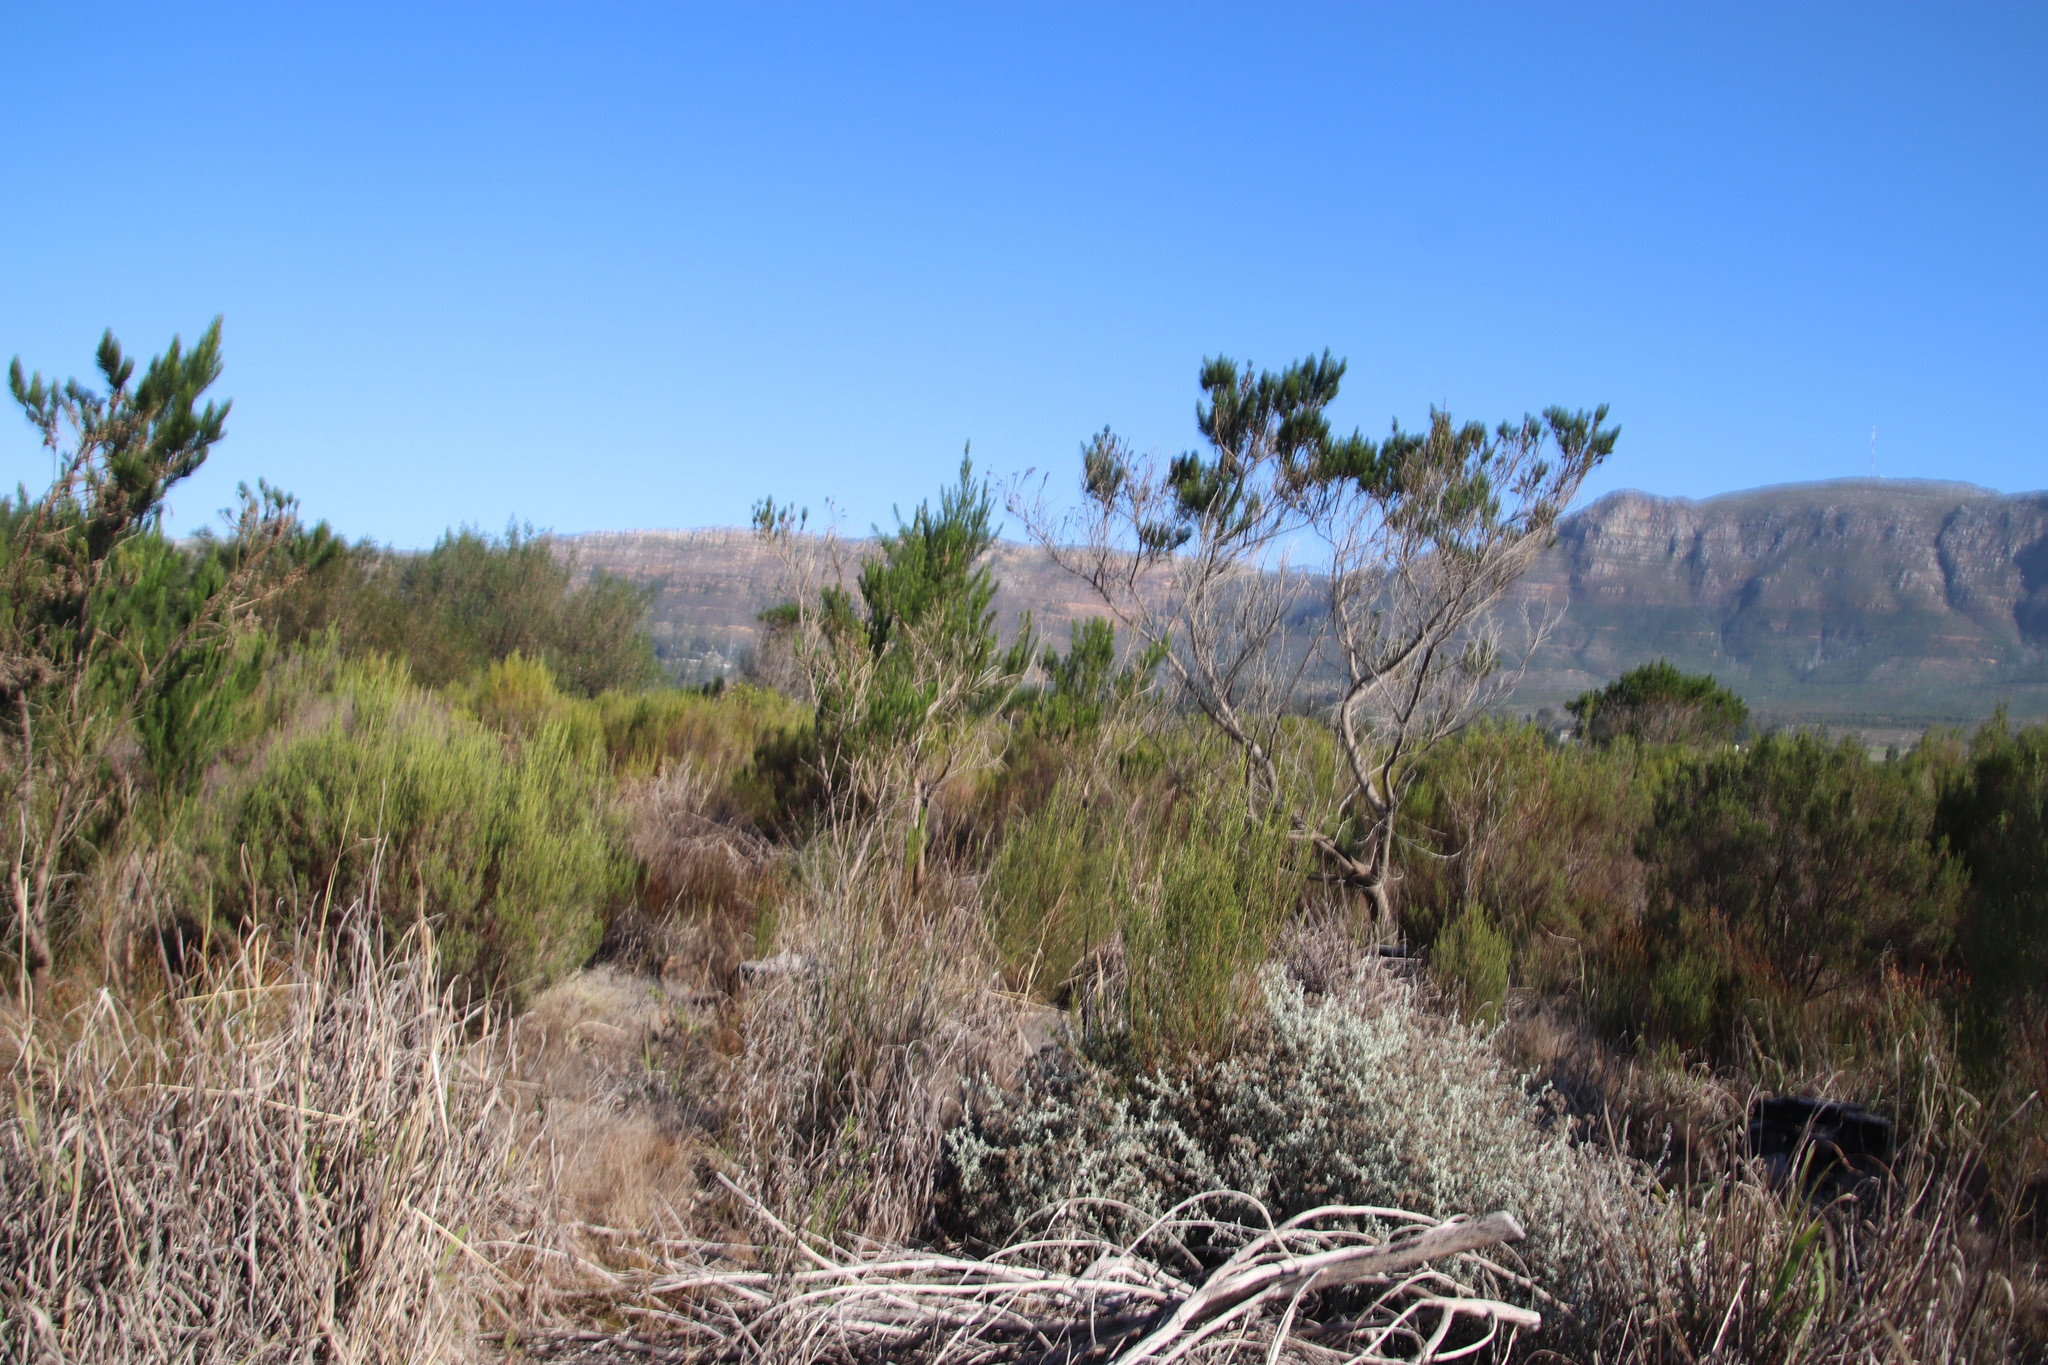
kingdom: Plantae
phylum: Tracheophyta
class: Magnoliopsida
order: Fabales
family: Fabaceae
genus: Psoralea
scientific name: Psoralea pinnata
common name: African scurfpea
